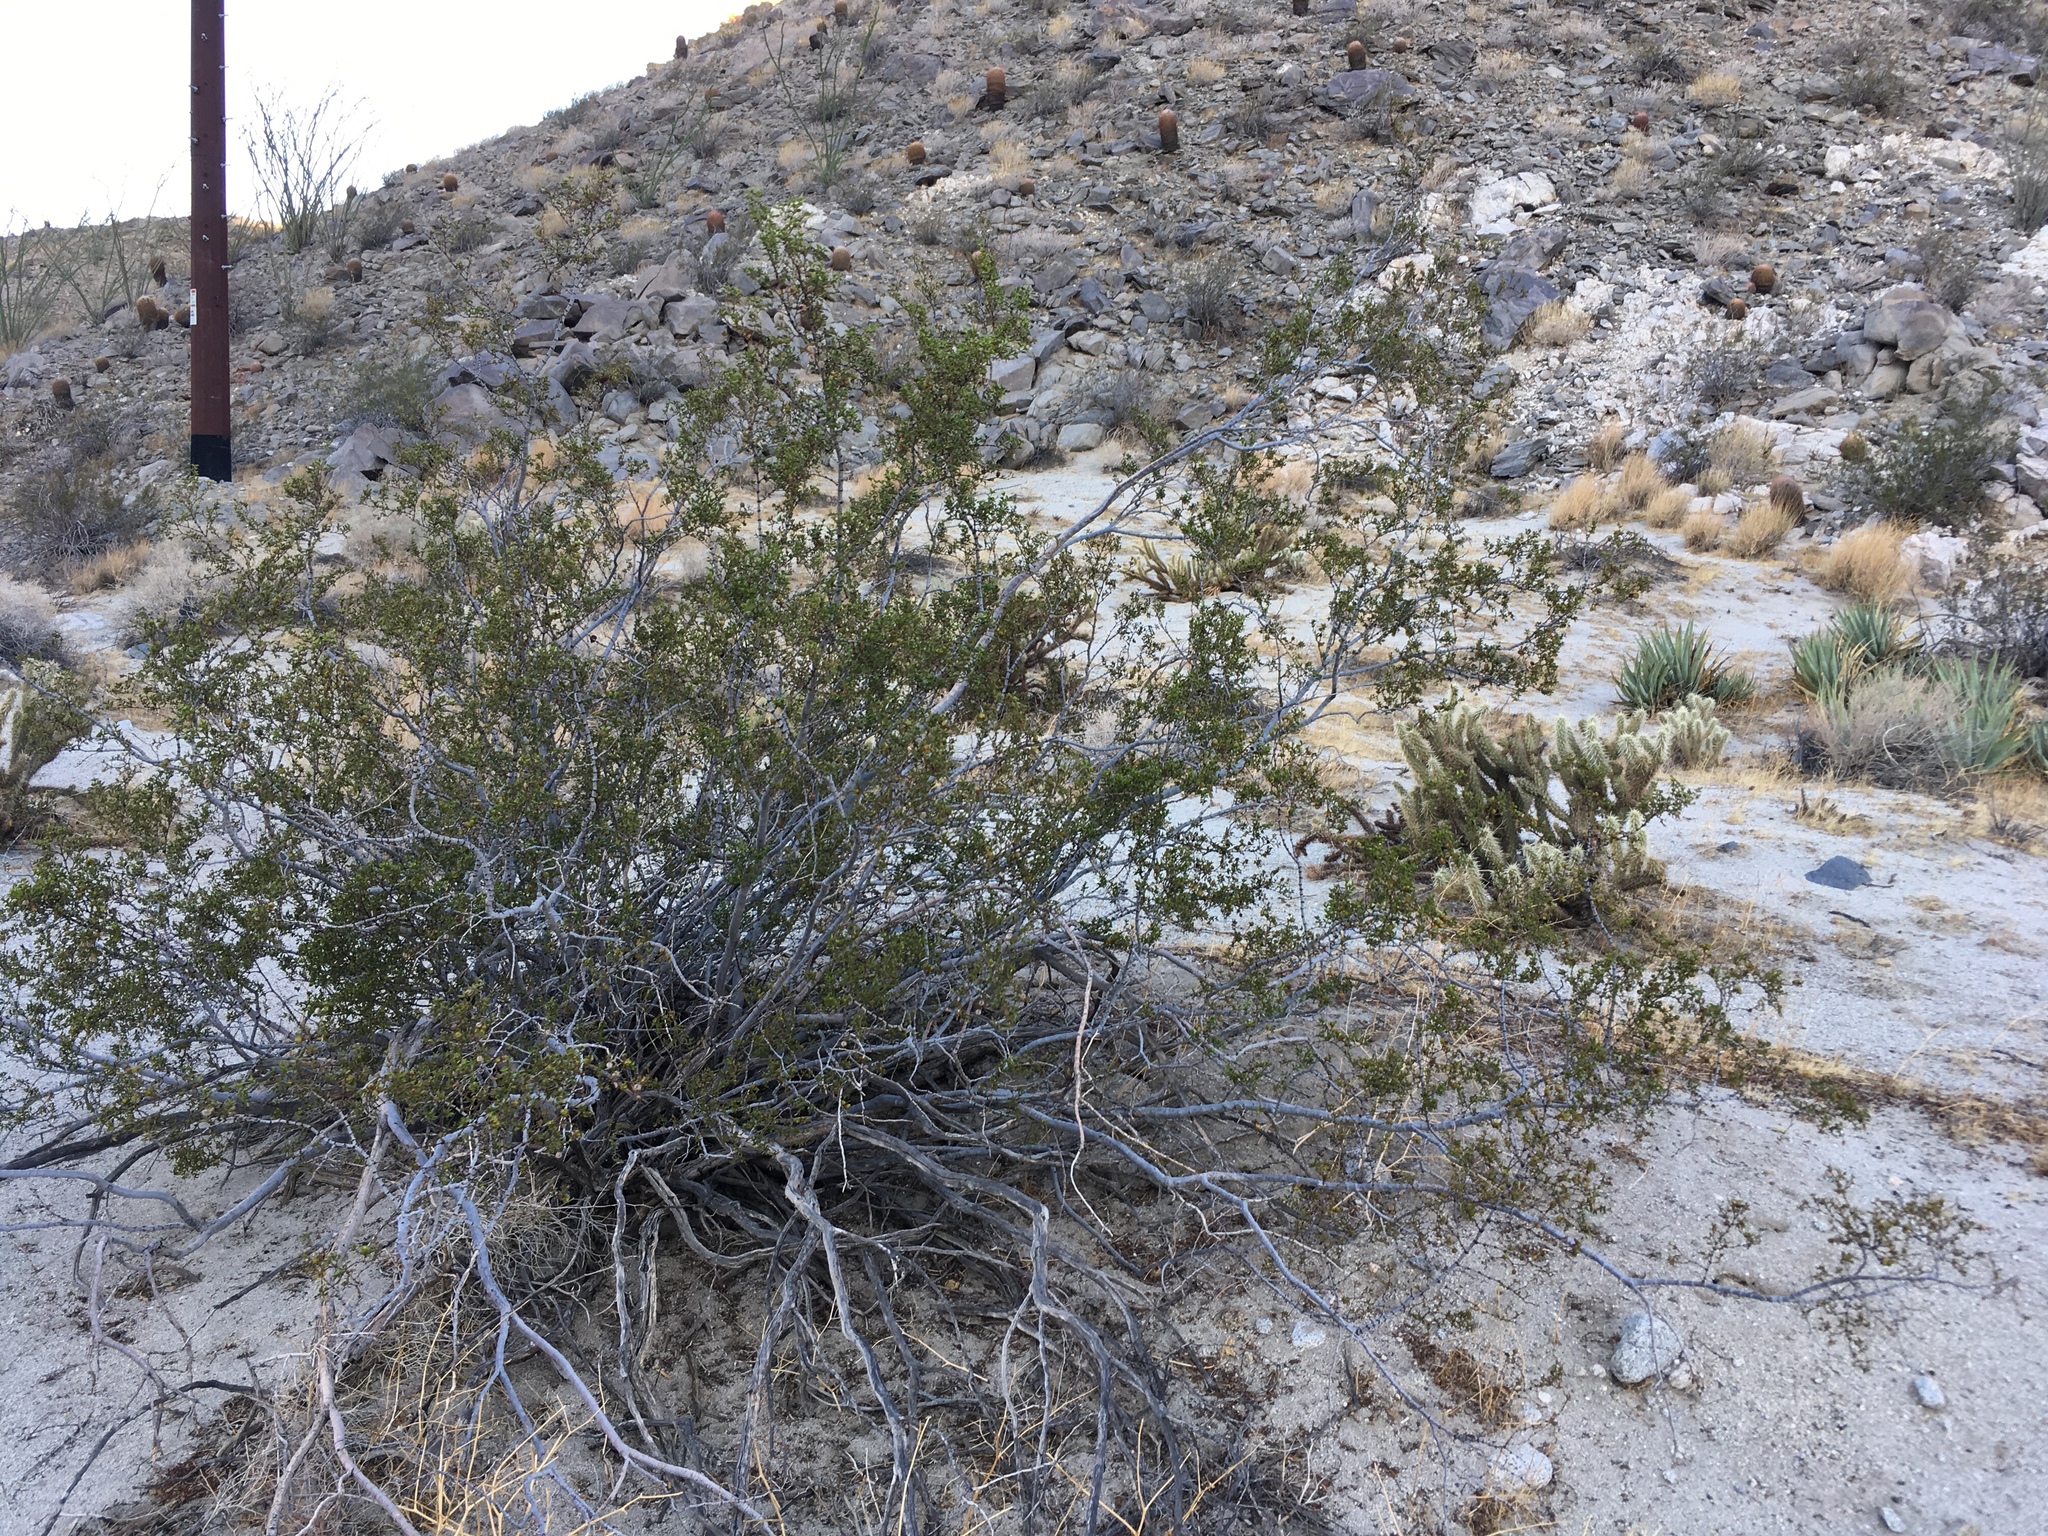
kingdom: Plantae
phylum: Tracheophyta
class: Magnoliopsida
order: Zygophyllales
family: Zygophyllaceae
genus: Larrea
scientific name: Larrea tridentata
